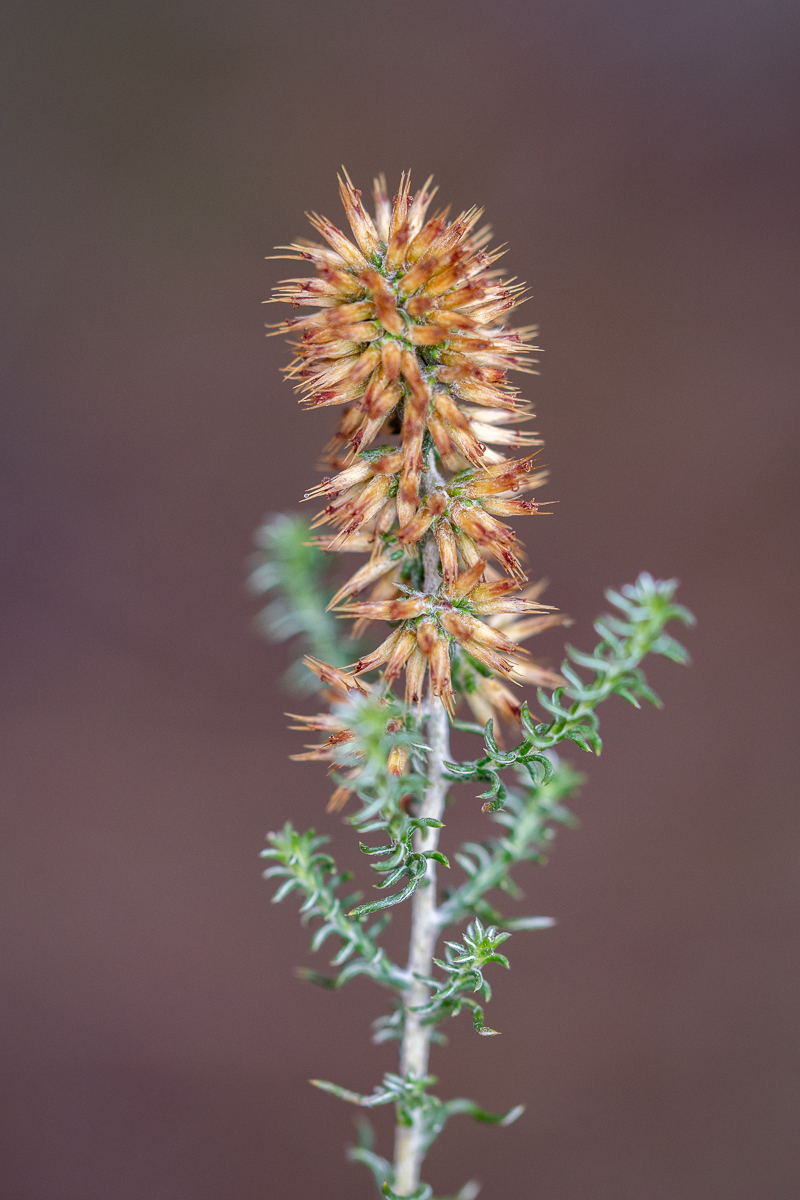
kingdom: Plantae
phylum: Tracheophyta
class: Magnoliopsida
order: Asterales
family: Asteraceae
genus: Seriphium
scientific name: Seriphium cinereum
